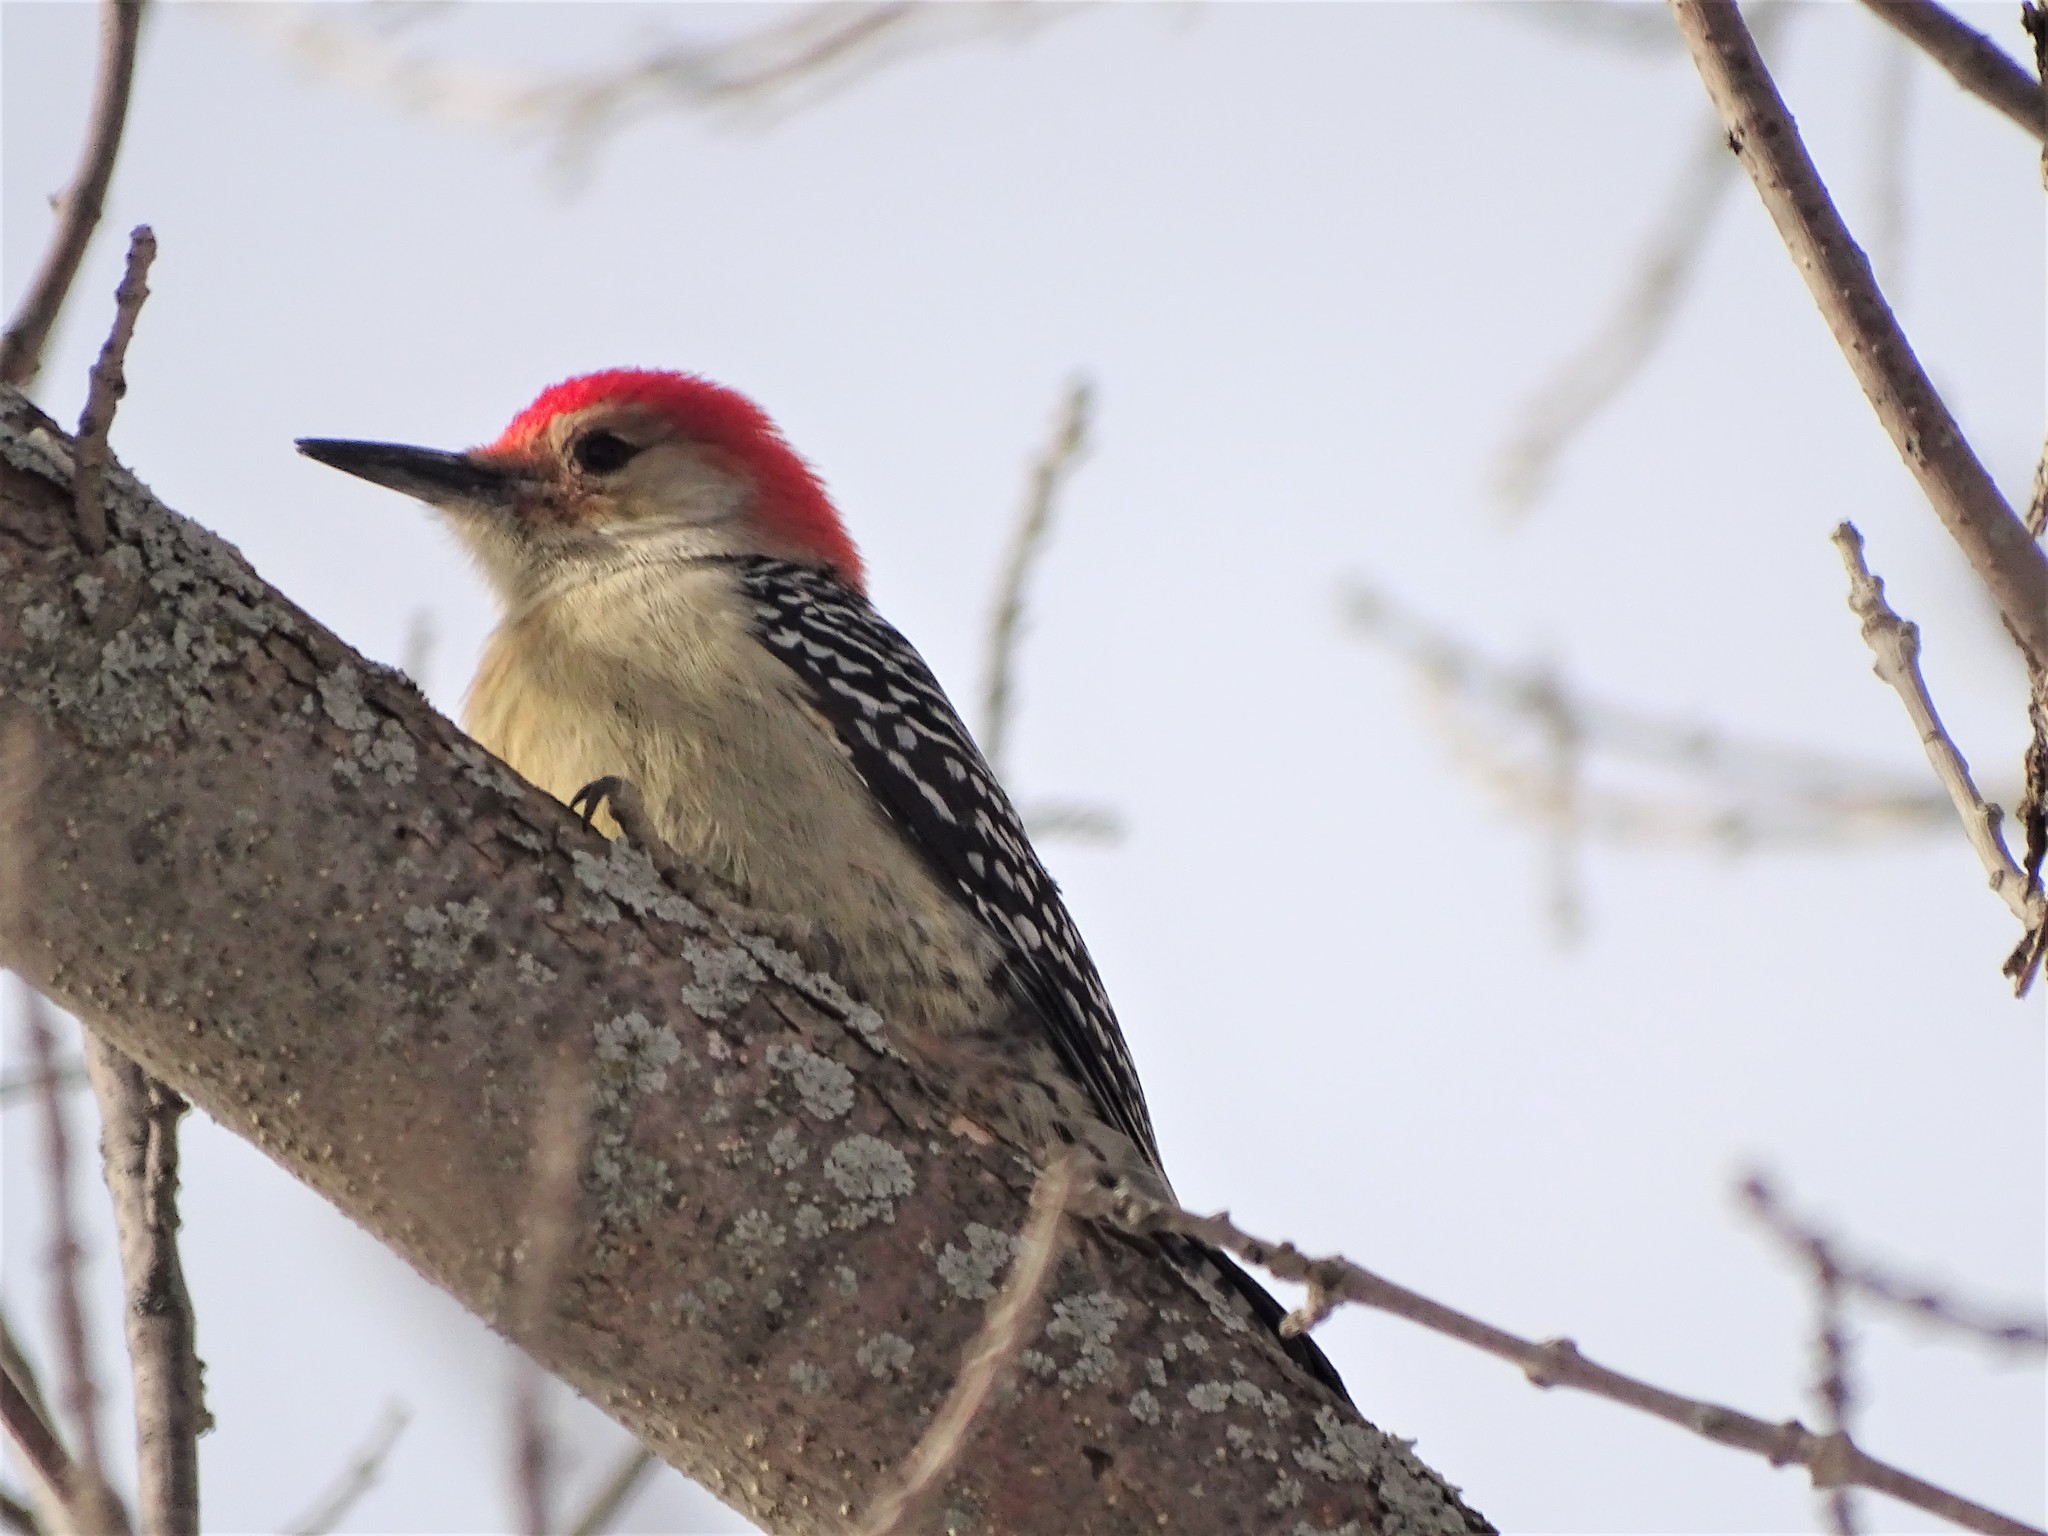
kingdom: Animalia
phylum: Chordata
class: Aves
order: Piciformes
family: Picidae
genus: Melanerpes
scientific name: Melanerpes carolinus
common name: Red-bellied woodpecker
